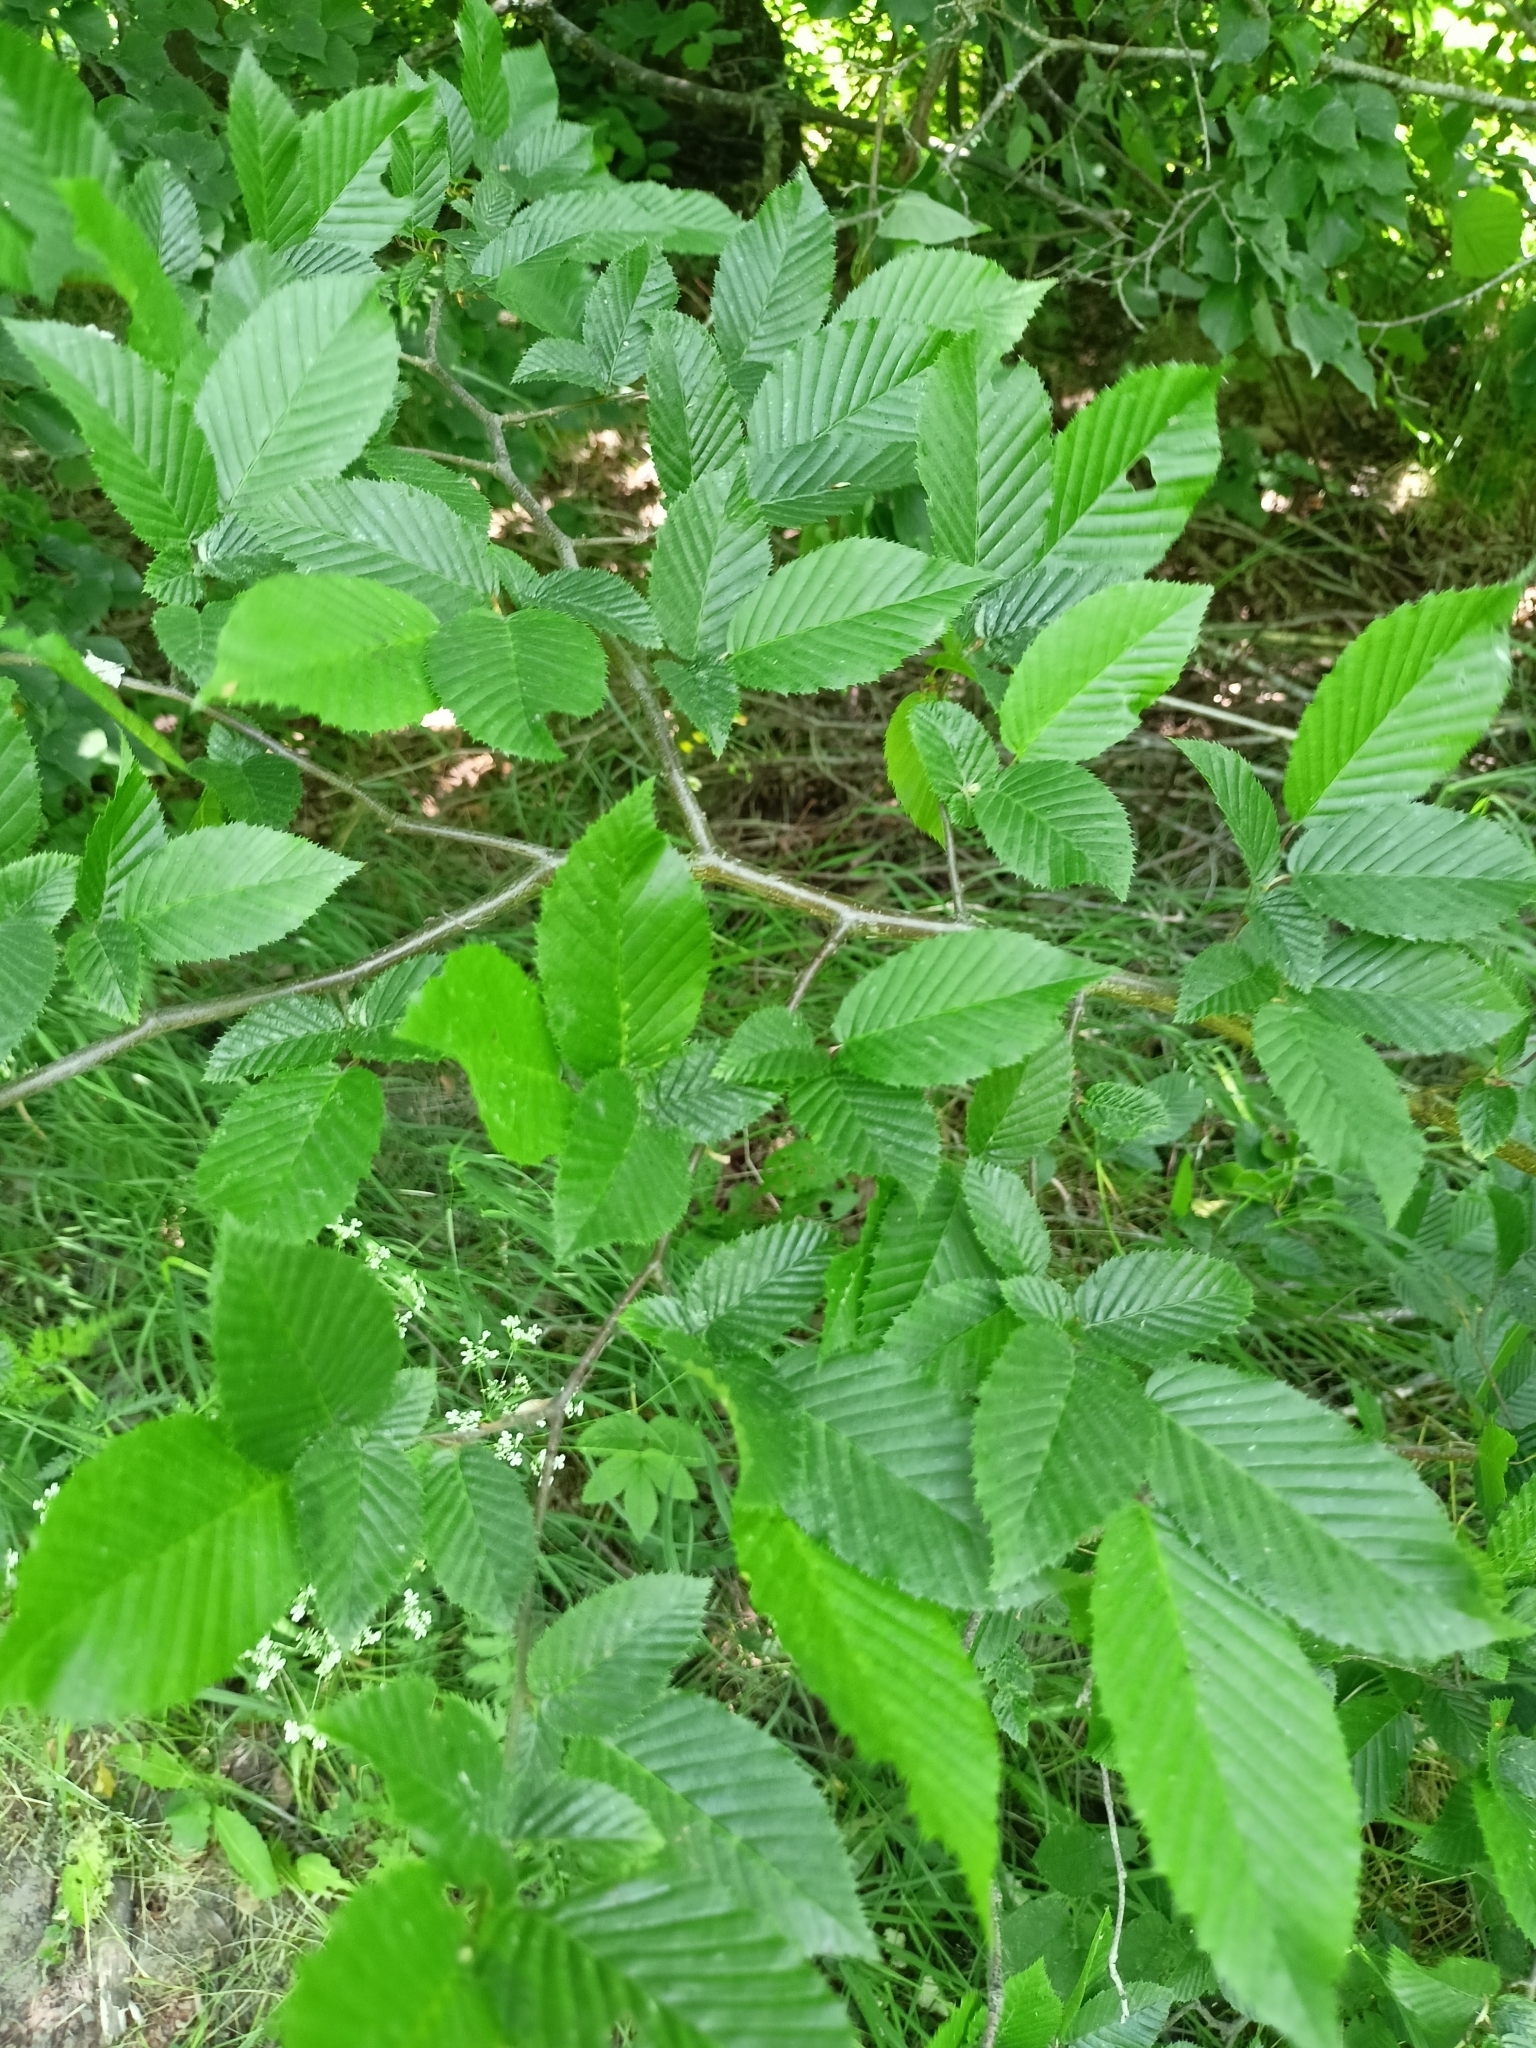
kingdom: Plantae
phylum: Tracheophyta
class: Magnoliopsida
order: Fagales
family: Betulaceae
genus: Carpinus
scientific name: Carpinus betulus
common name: Hornbeam
